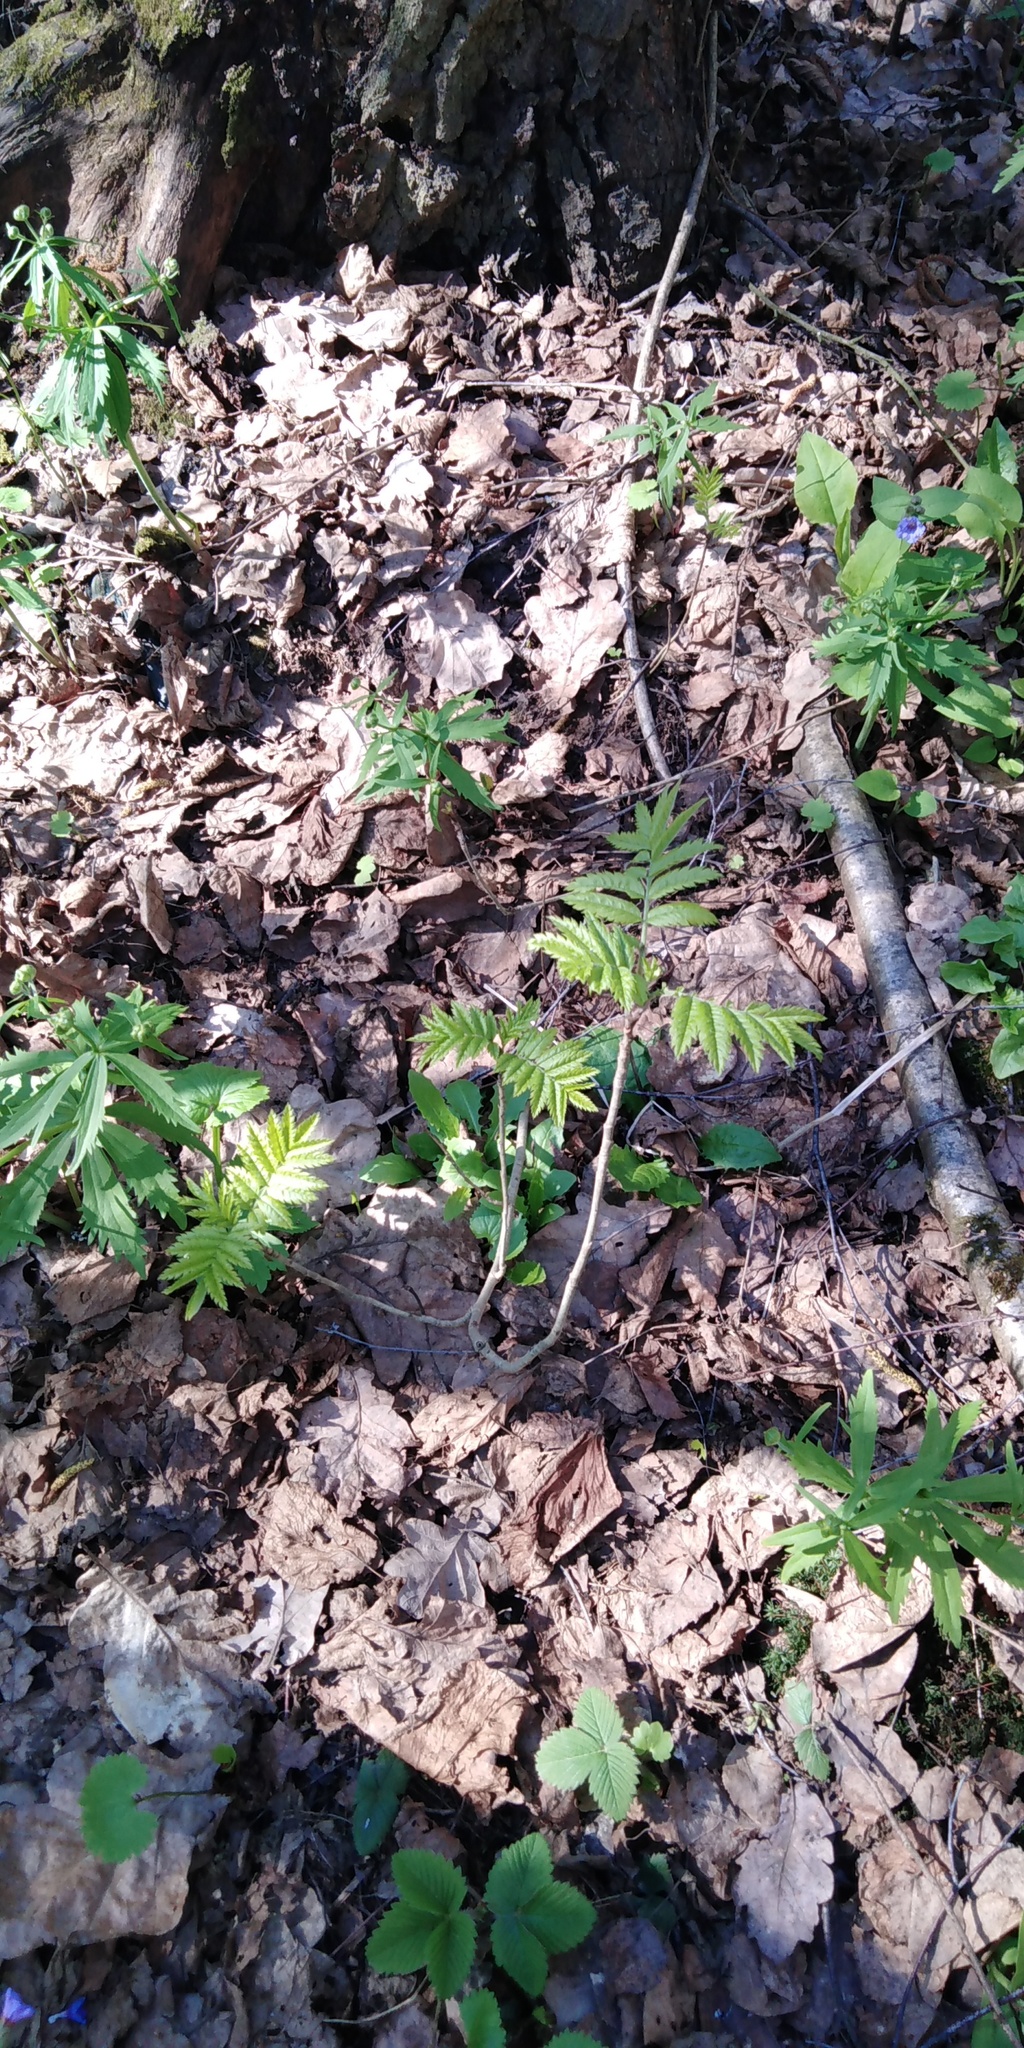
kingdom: Plantae
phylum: Tracheophyta
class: Magnoliopsida
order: Rosales
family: Rosaceae
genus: Sorbus
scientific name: Sorbus aucuparia
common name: Rowan
